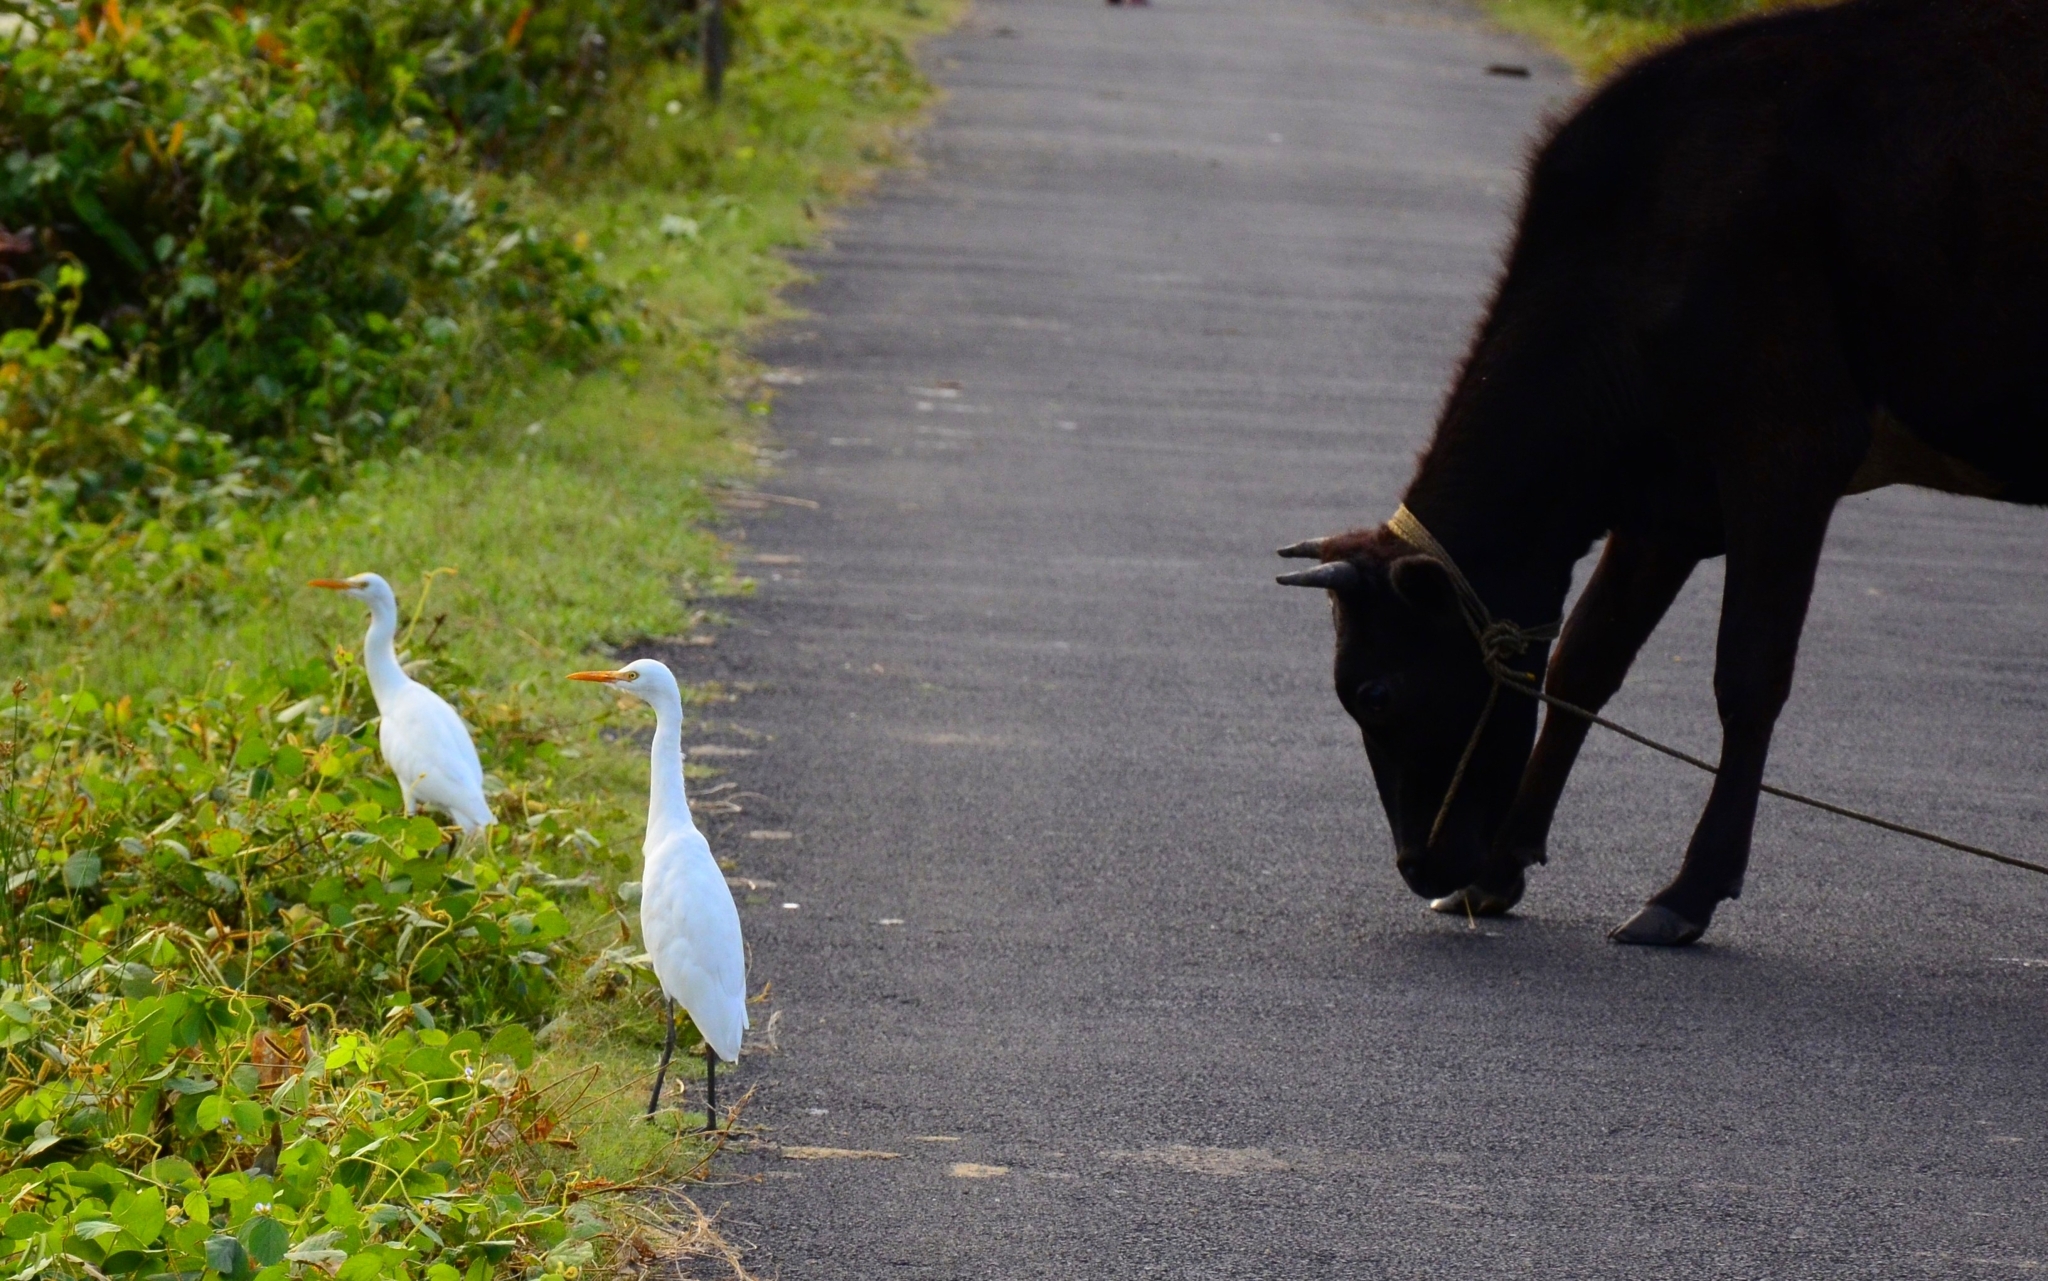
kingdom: Animalia
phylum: Chordata
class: Aves
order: Pelecaniformes
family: Ardeidae
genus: Bubulcus
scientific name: Bubulcus coromandus
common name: Eastern cattle egret
